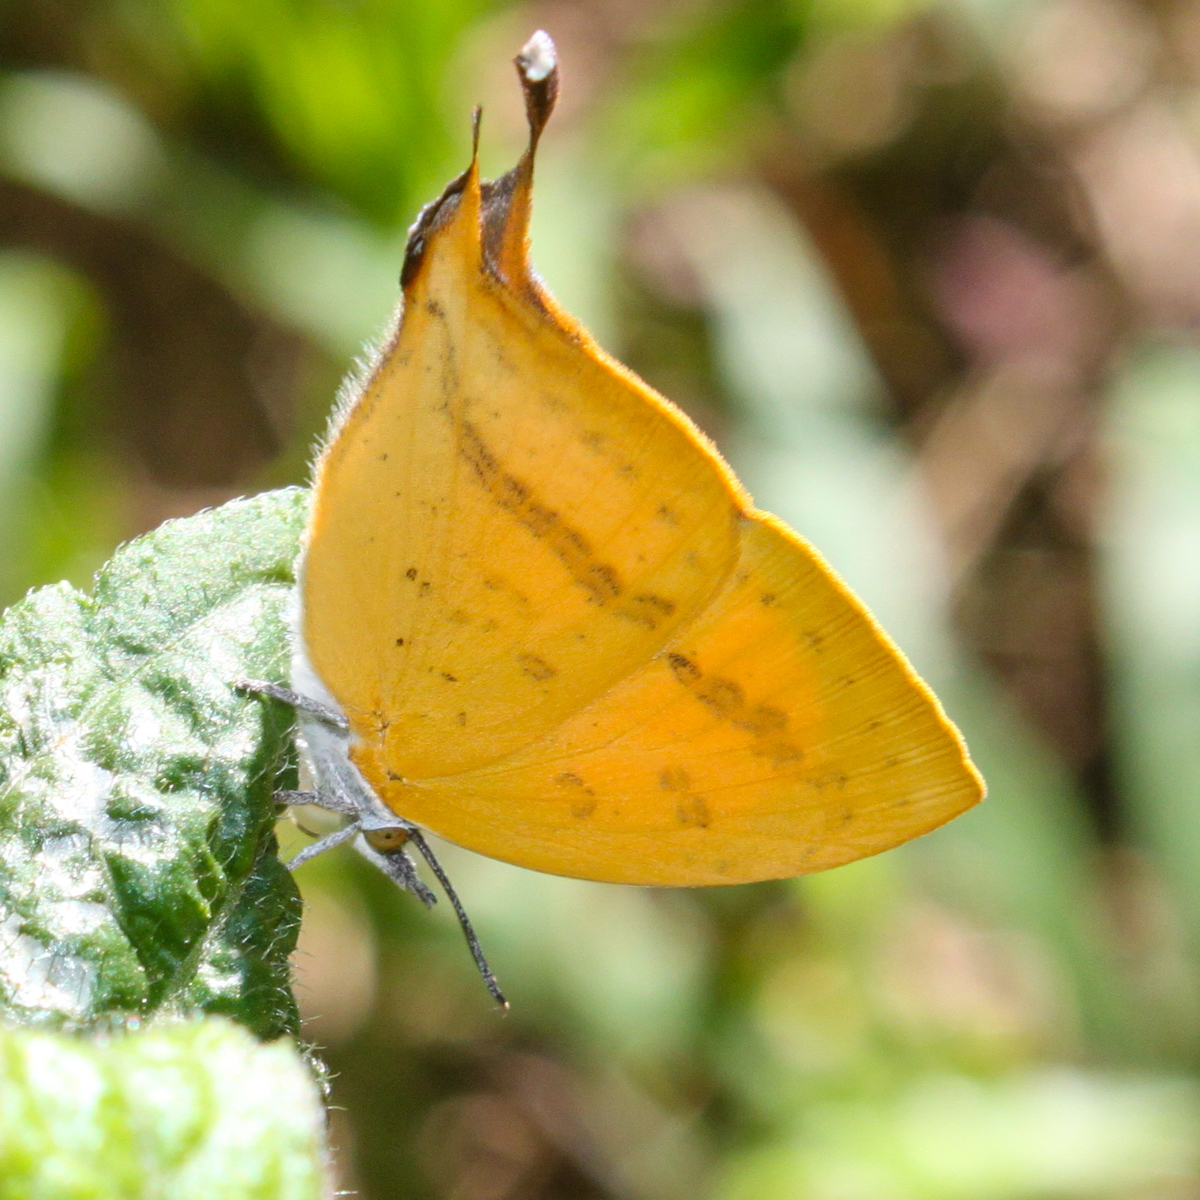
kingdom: Animalia
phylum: Arthropoda
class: Insecta
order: Lepidoptera
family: Lycaenidae
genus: Loxura
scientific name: Loxura atymnus
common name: Common yamfly
